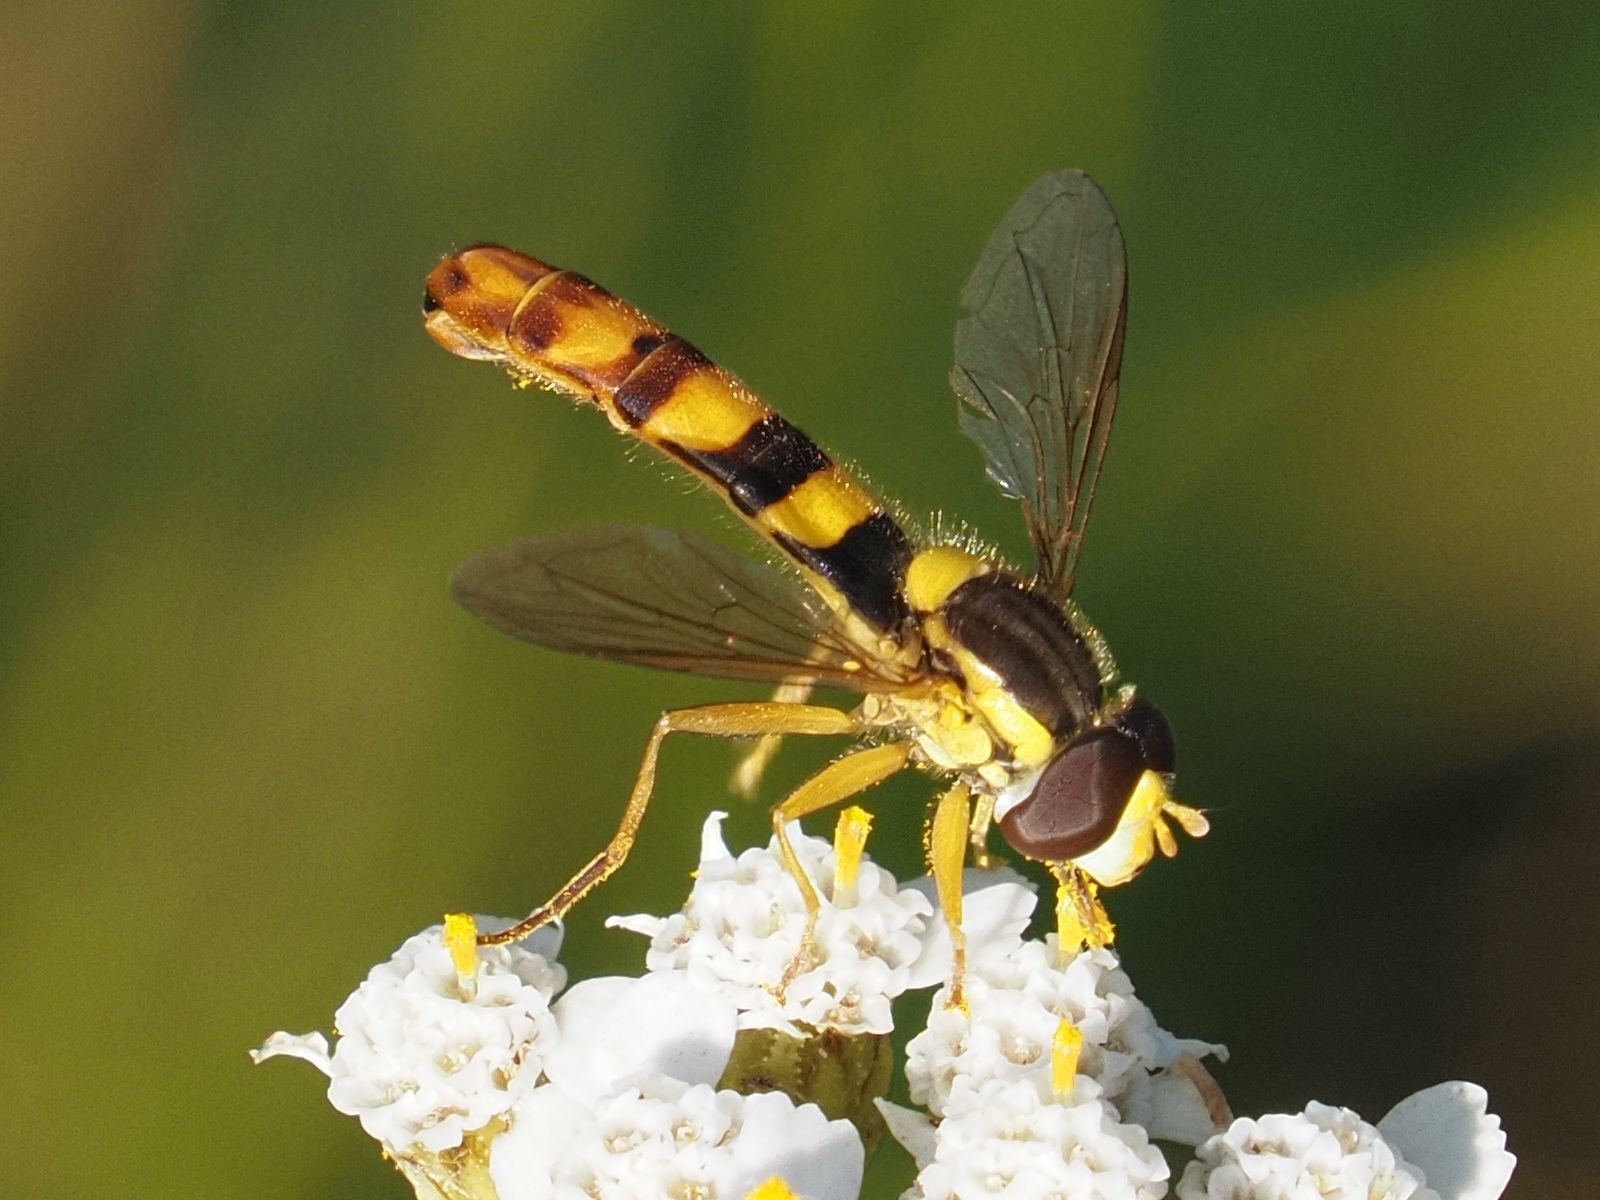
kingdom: Animalia
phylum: Arthropoda
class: Insecta
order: Diptera
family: Syrphidae
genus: Sphaerophoria
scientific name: Sphaerophoria scripta
